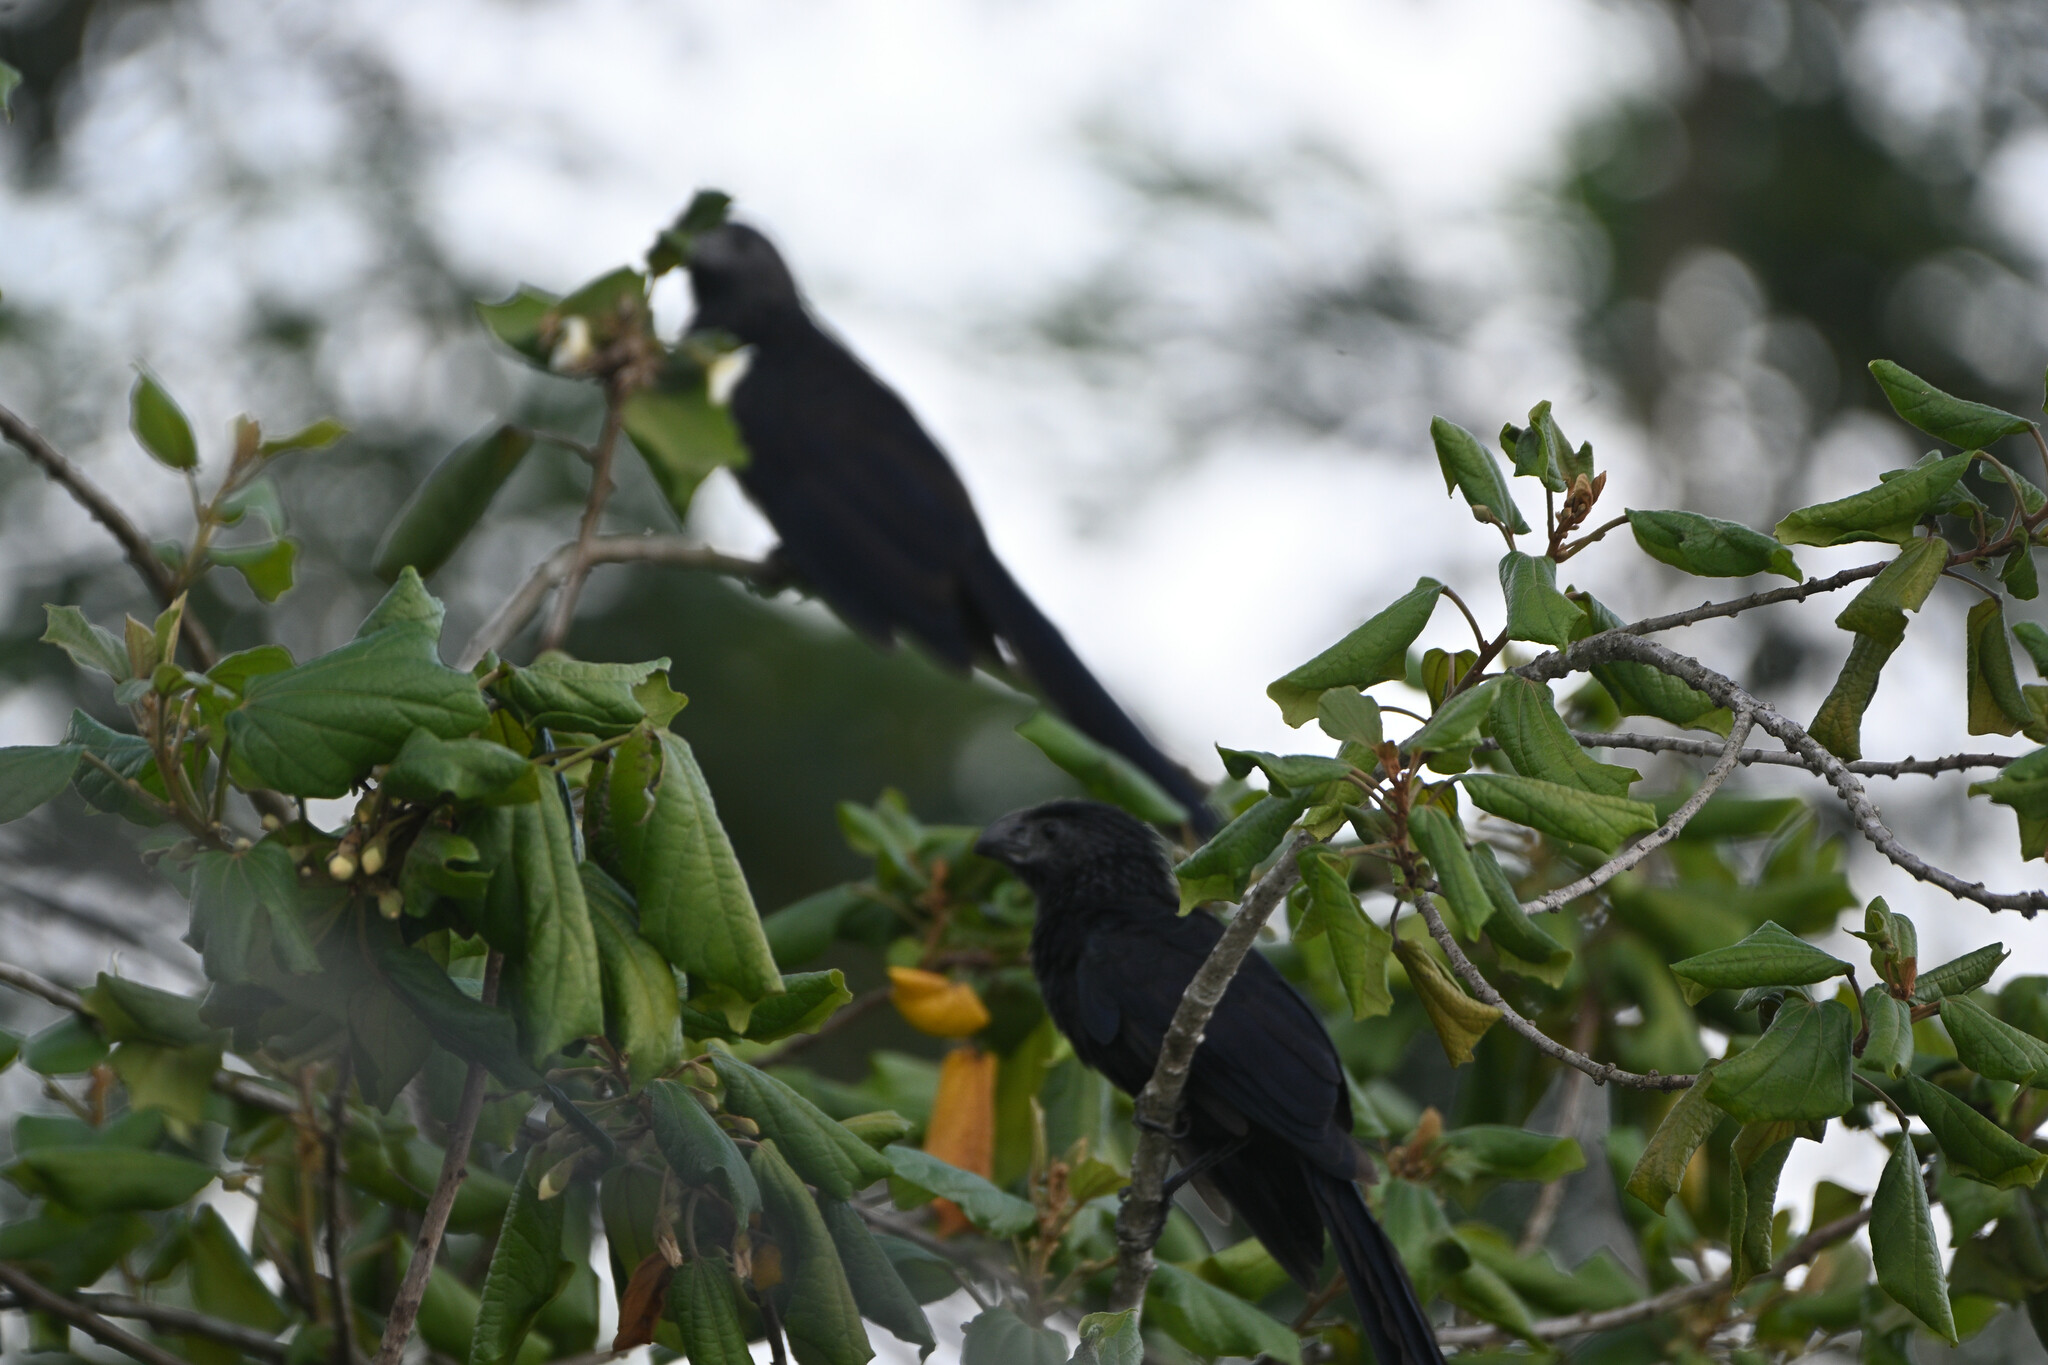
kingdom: Animalia
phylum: Chordata
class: Aves
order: Cuculiformes
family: Cuculidae
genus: Crotophaga
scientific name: Crotophaga sulcirostris
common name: Groove-billed ani
